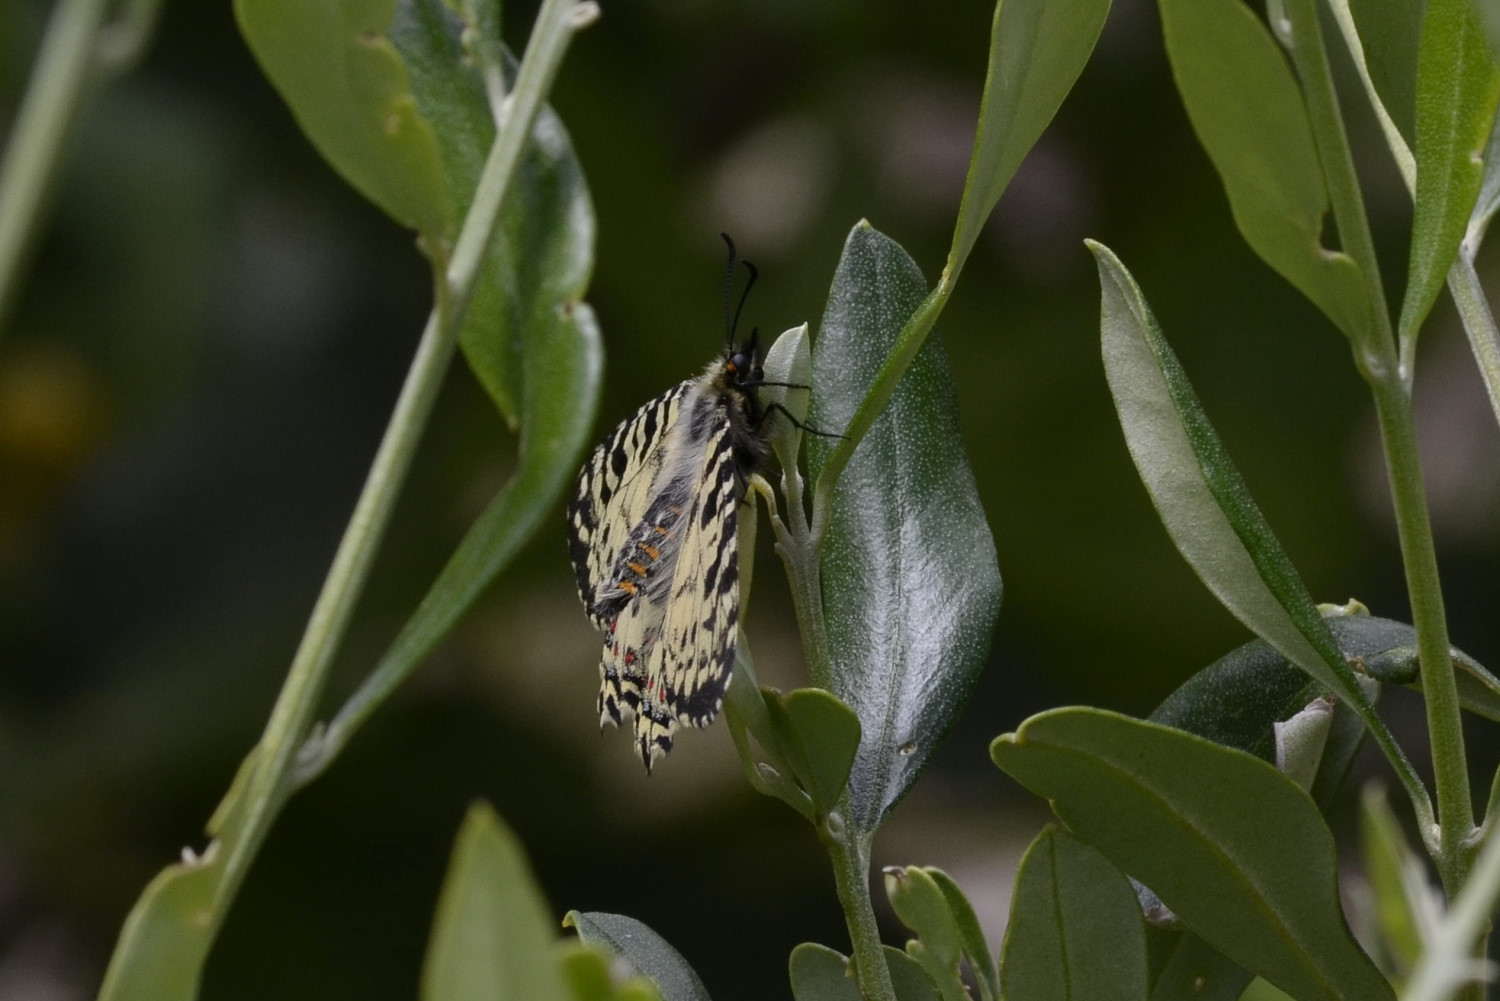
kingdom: Animalia
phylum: Arthropoda
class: Insecta
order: Lepidoptera
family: Papilionidae
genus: Zerynthia
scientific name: Zerynthia cretica
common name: Cretan festoon
